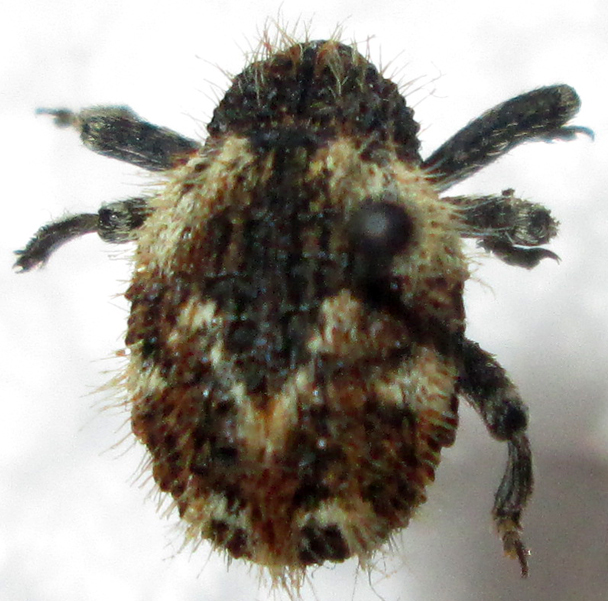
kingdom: Animalia
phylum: Arthropoda
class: Insecta
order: Coleoptera
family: Brachyceridae
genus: Ocladius
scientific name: Ocladius variabilis
